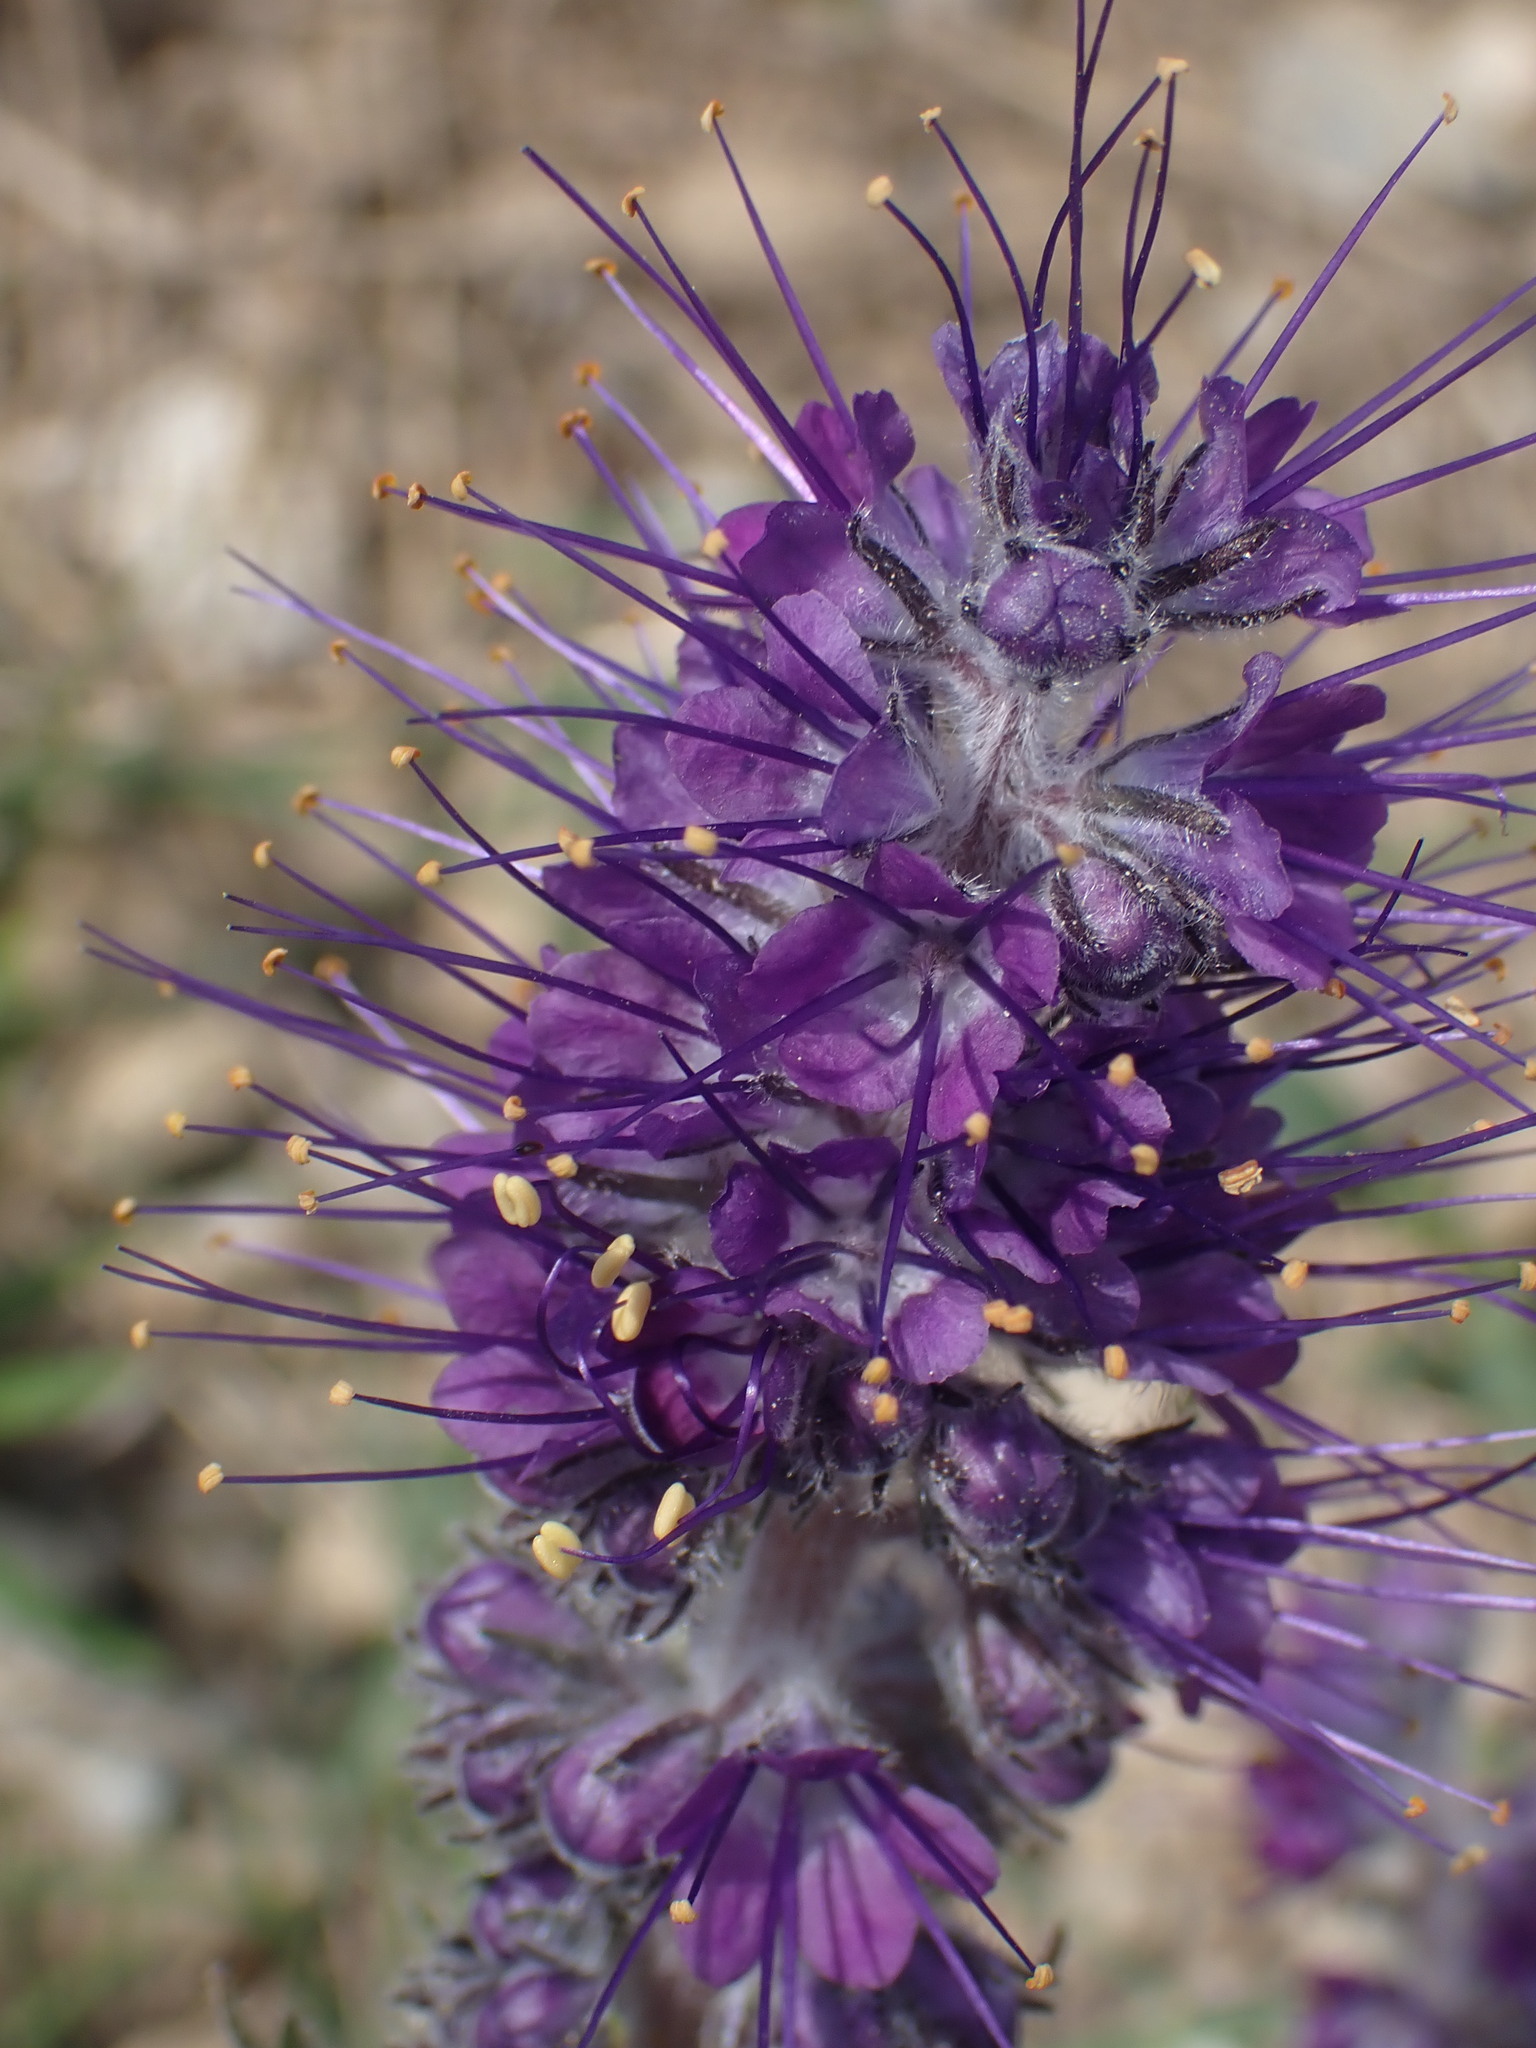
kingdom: Plantae
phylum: Tracheophyta
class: Magnoliopsida
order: Boraginales
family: Hydrophyllaceae
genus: Phacelia
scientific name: Phacelia sericea
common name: Silky phacelia
